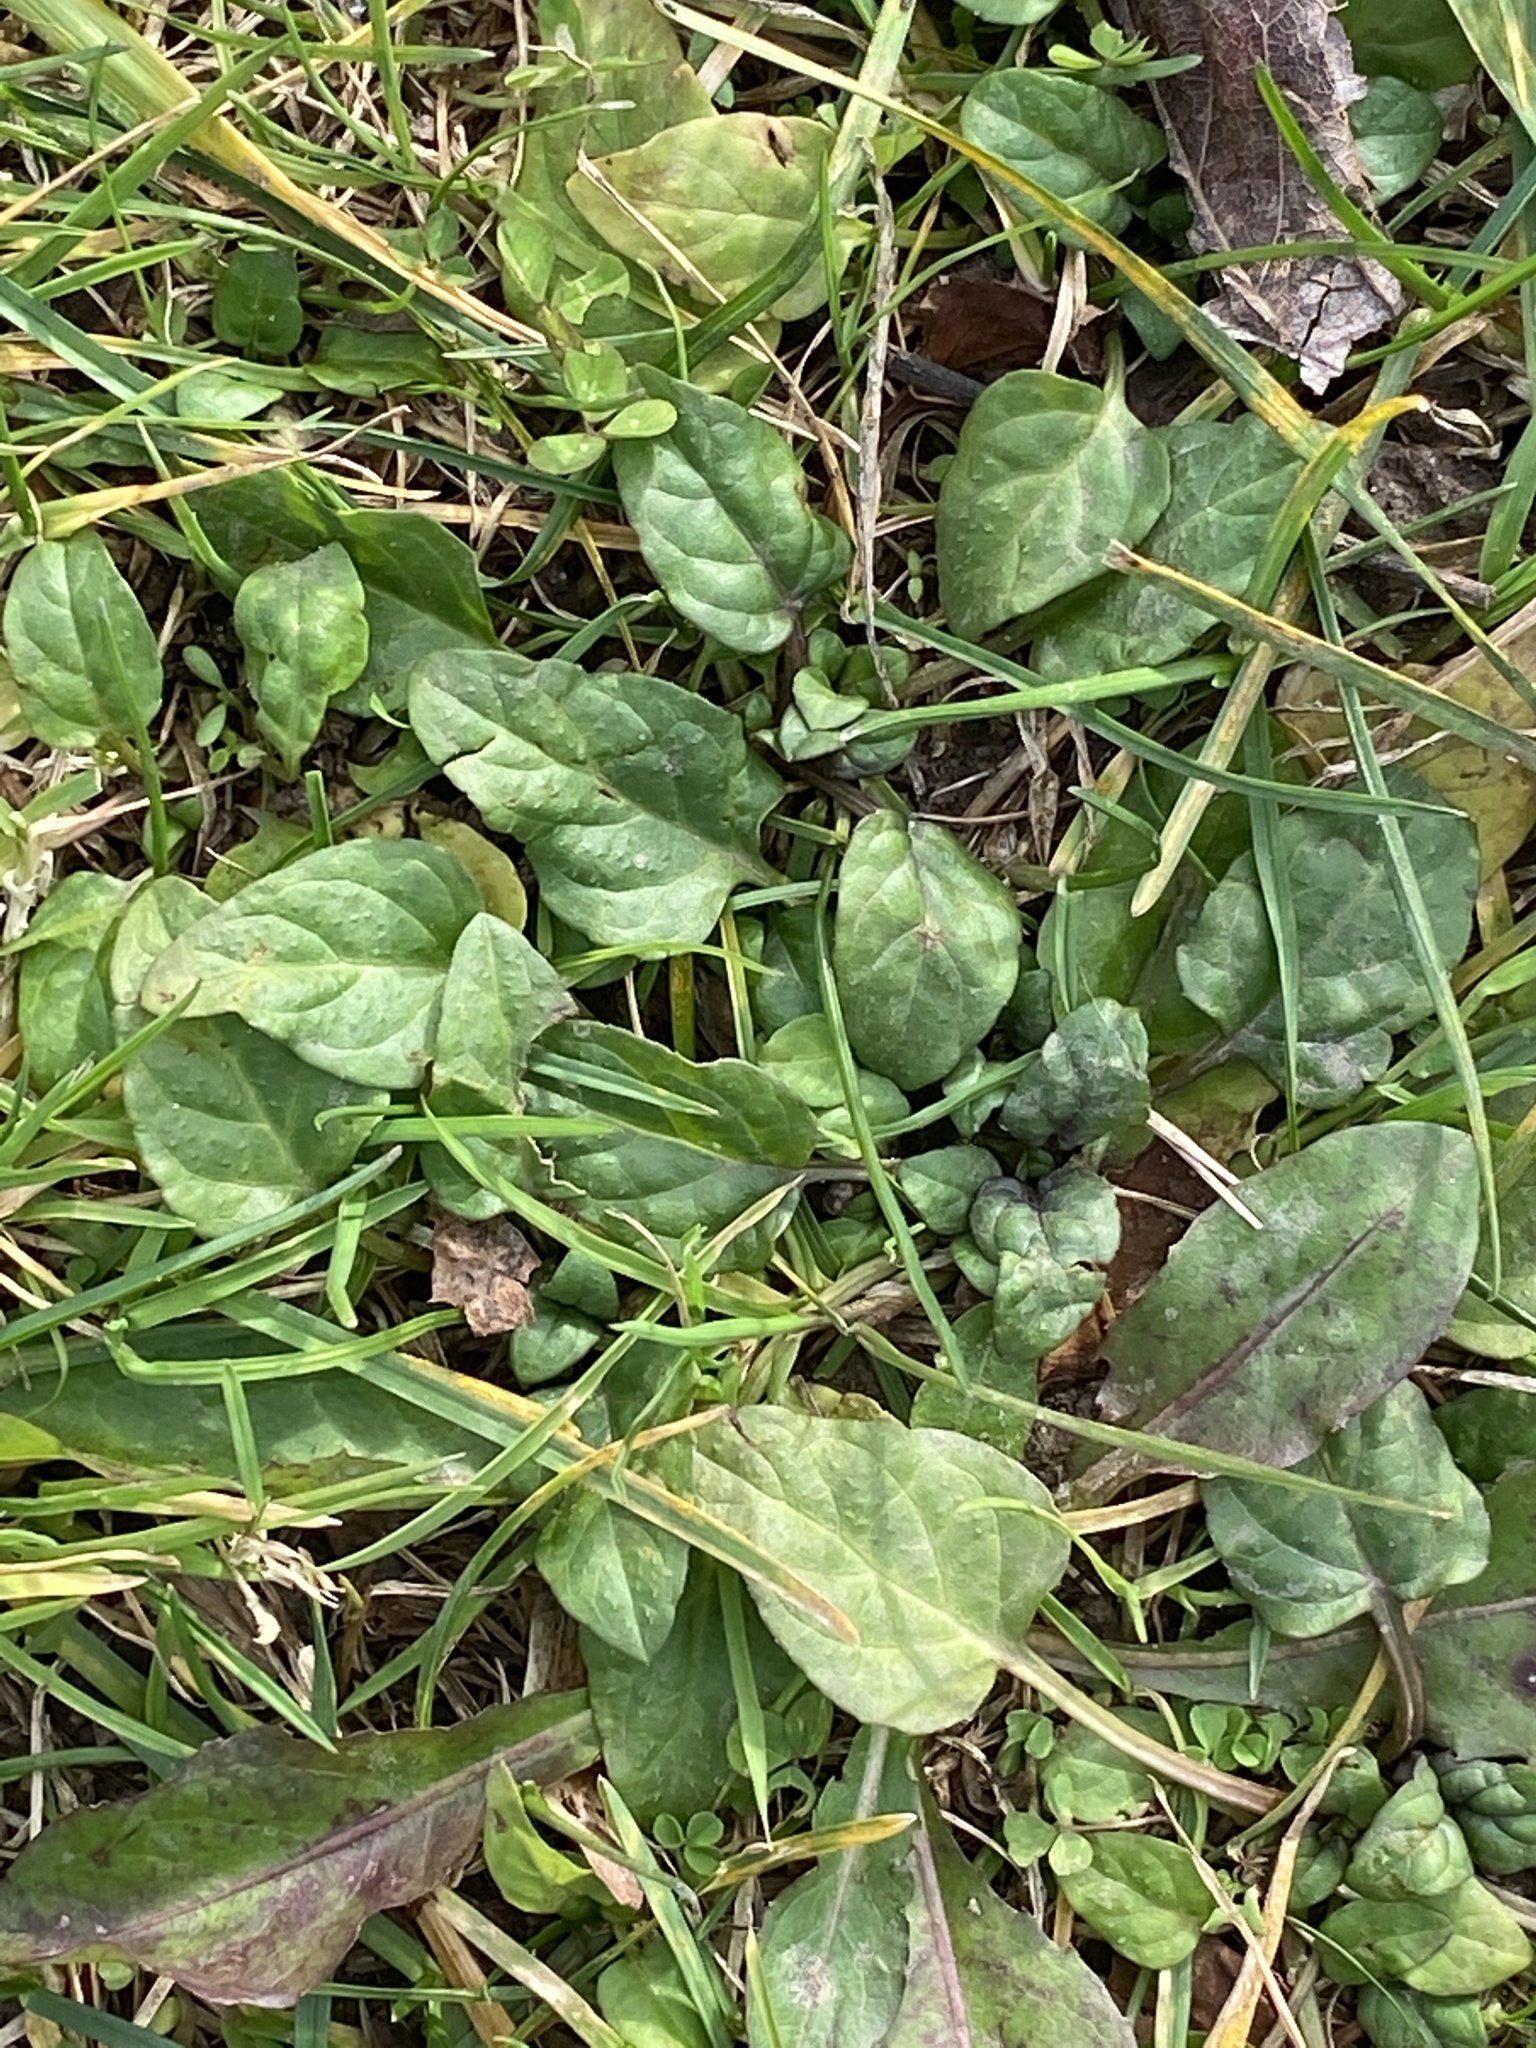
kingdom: Plantae
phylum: Tracheophyta
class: Magnoliopsida
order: Lamiales
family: Lamiaceae
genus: Prunella
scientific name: Prunella vulgaris
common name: Heal-all
